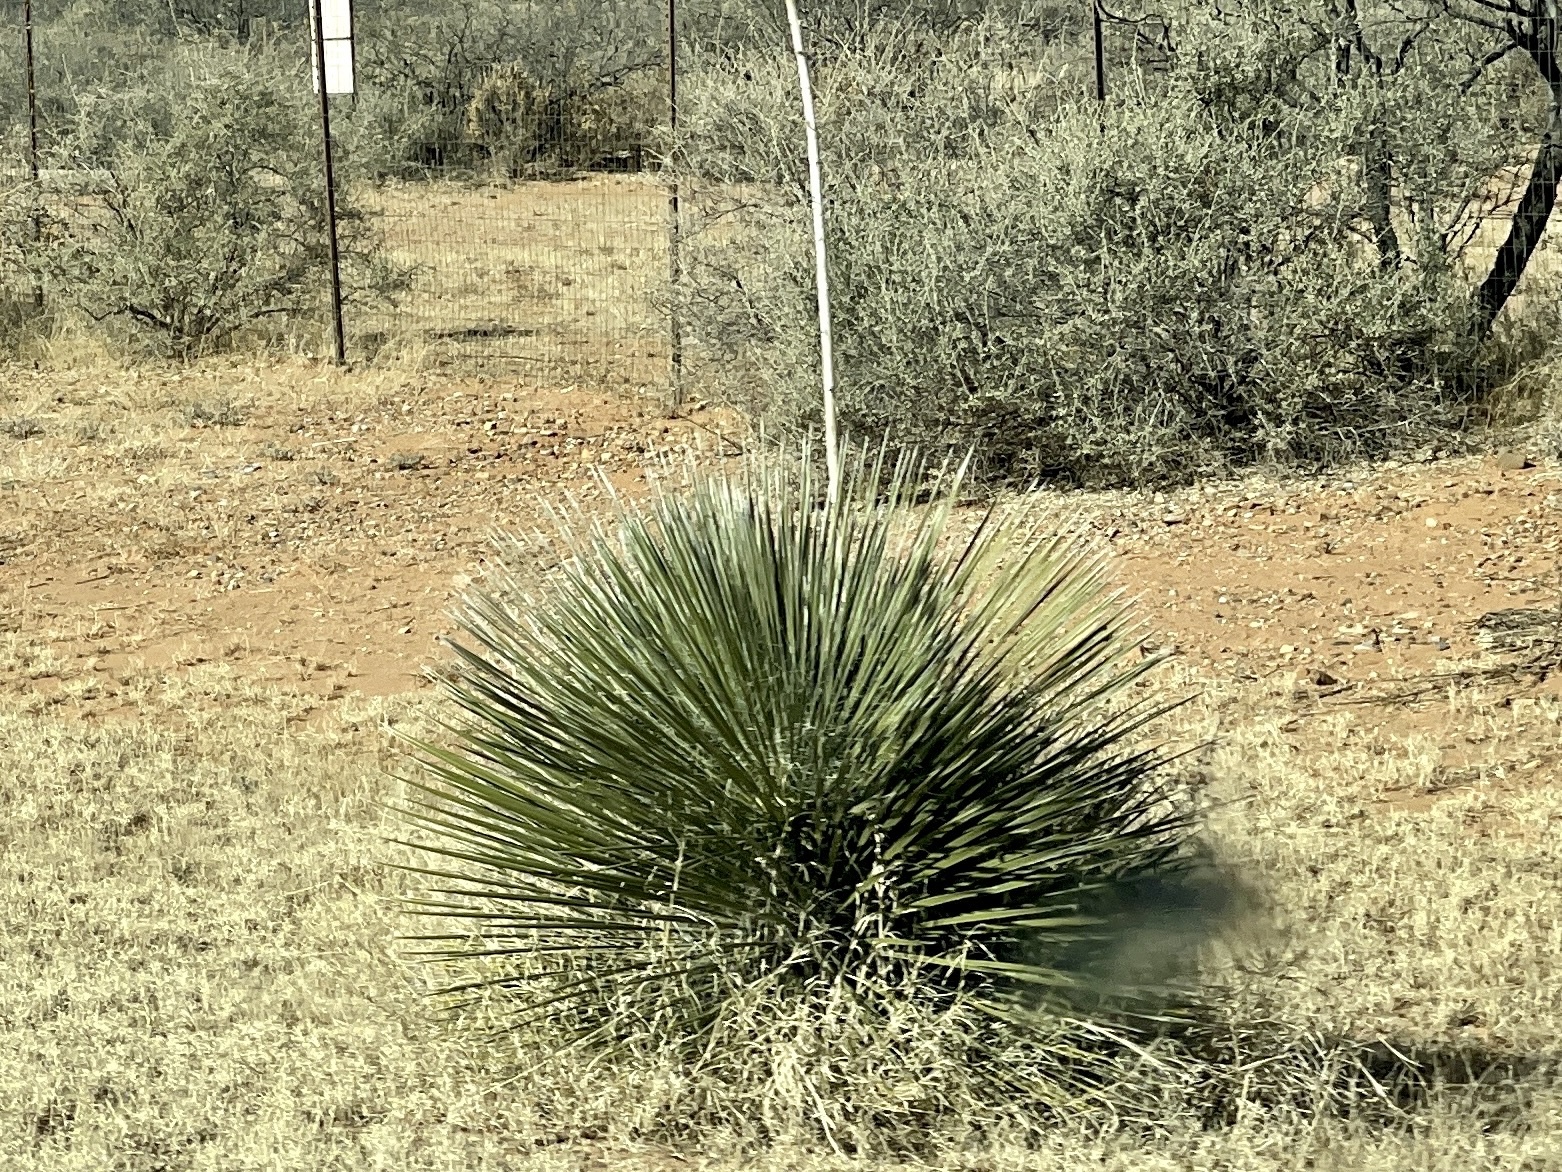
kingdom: Plantae
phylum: Tracheophyta
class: Liliopsida
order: Asparagales
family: Asparagaceae
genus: Yucca
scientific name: Yucca elata
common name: Palmella
